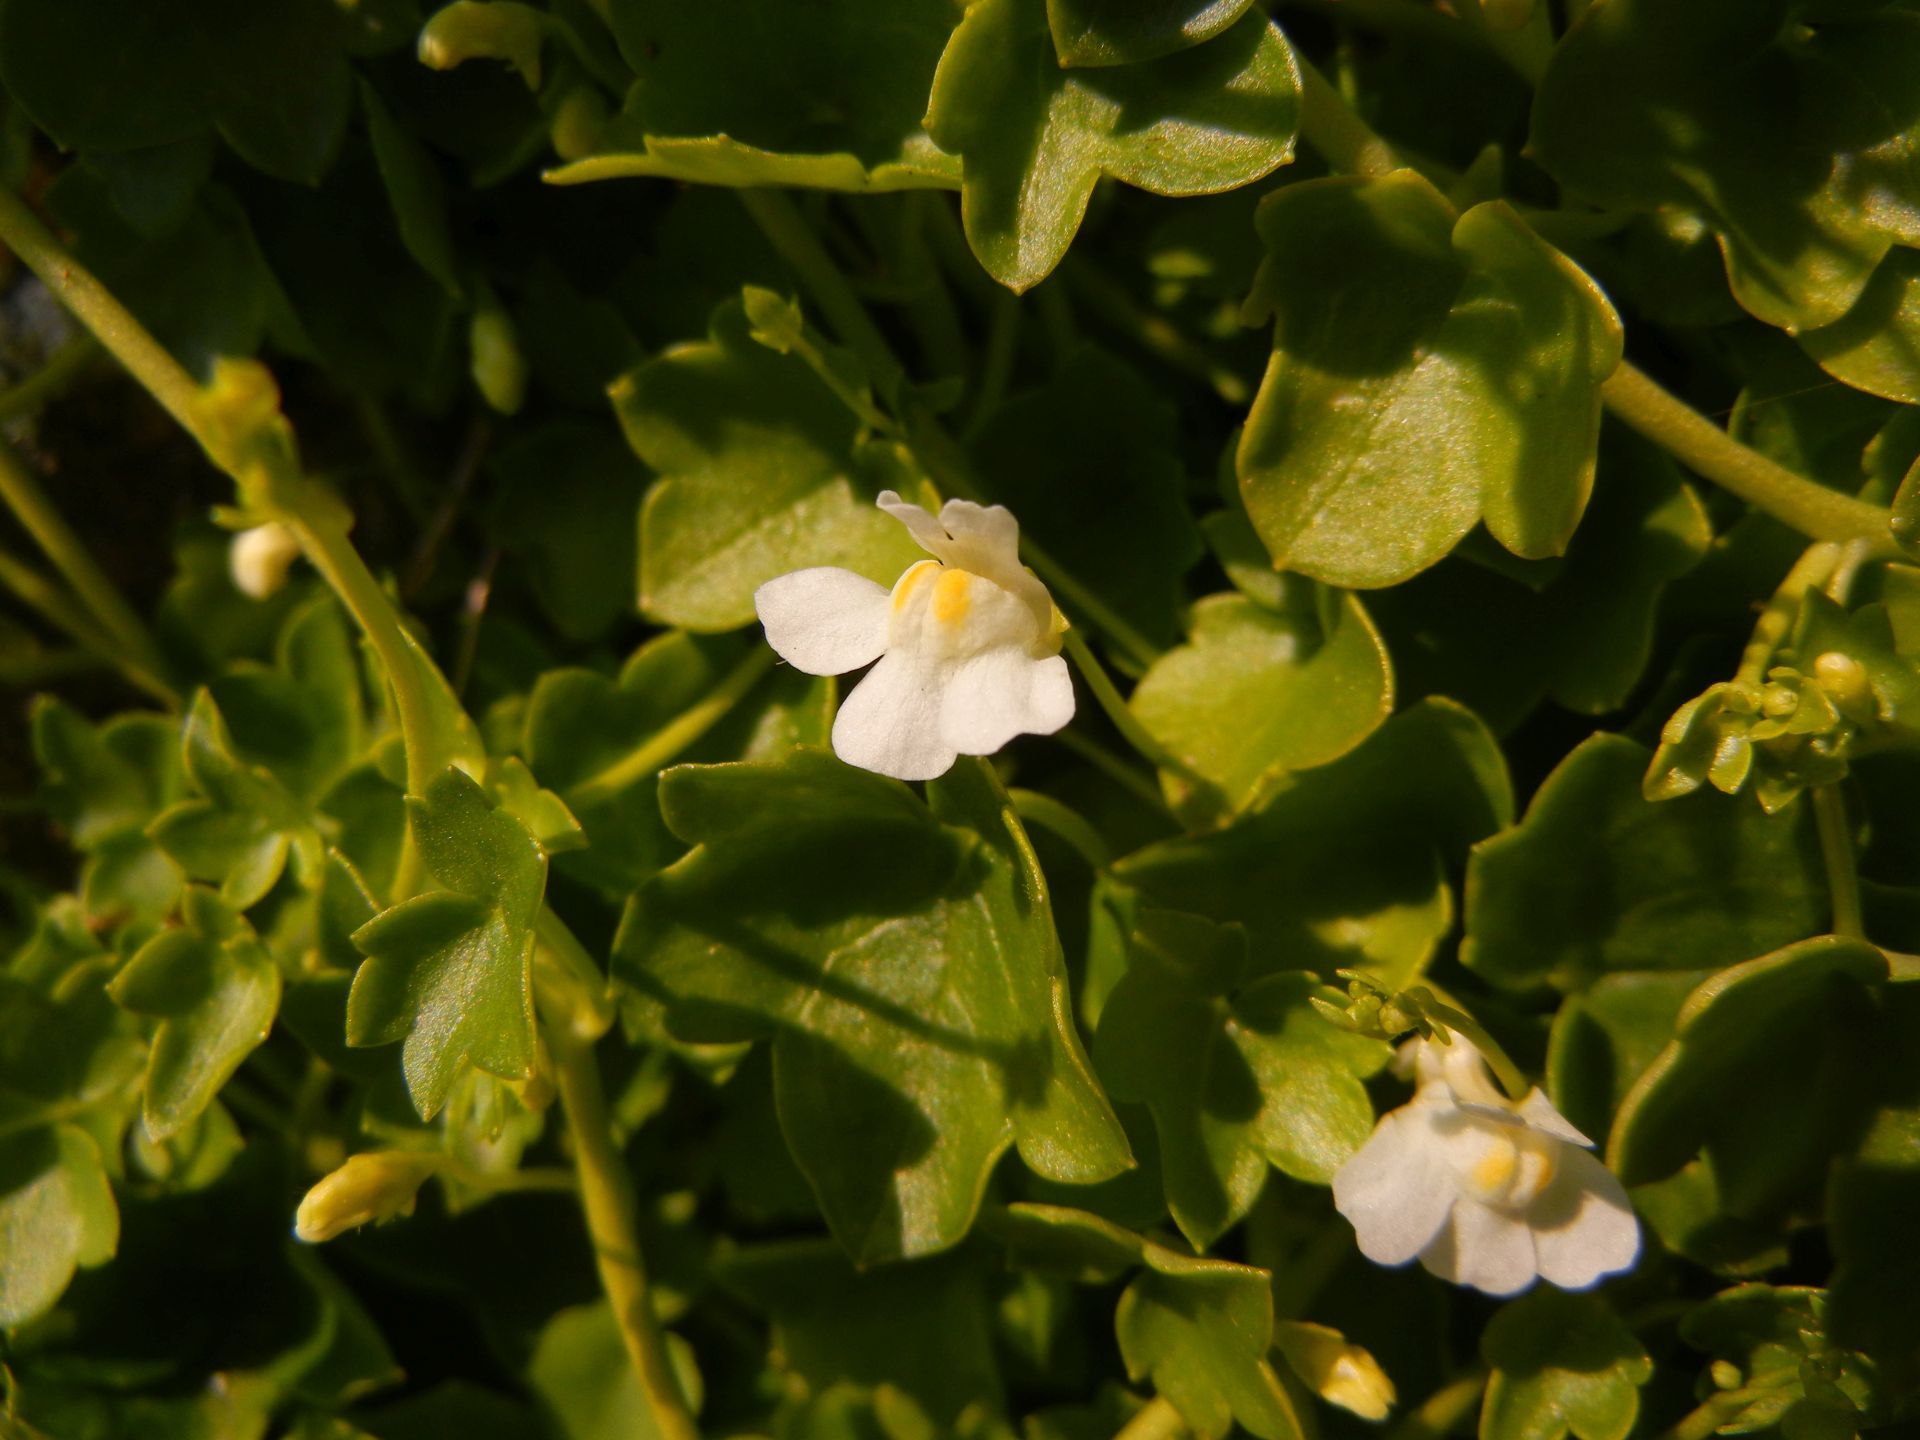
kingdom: Plantae
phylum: Tracheophyta
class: Magnoliopsida
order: Lamiales
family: Plantaginaceae
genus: Cymbalaria
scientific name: Cymbalaria muralis
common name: Ivy-leaved toadflax
